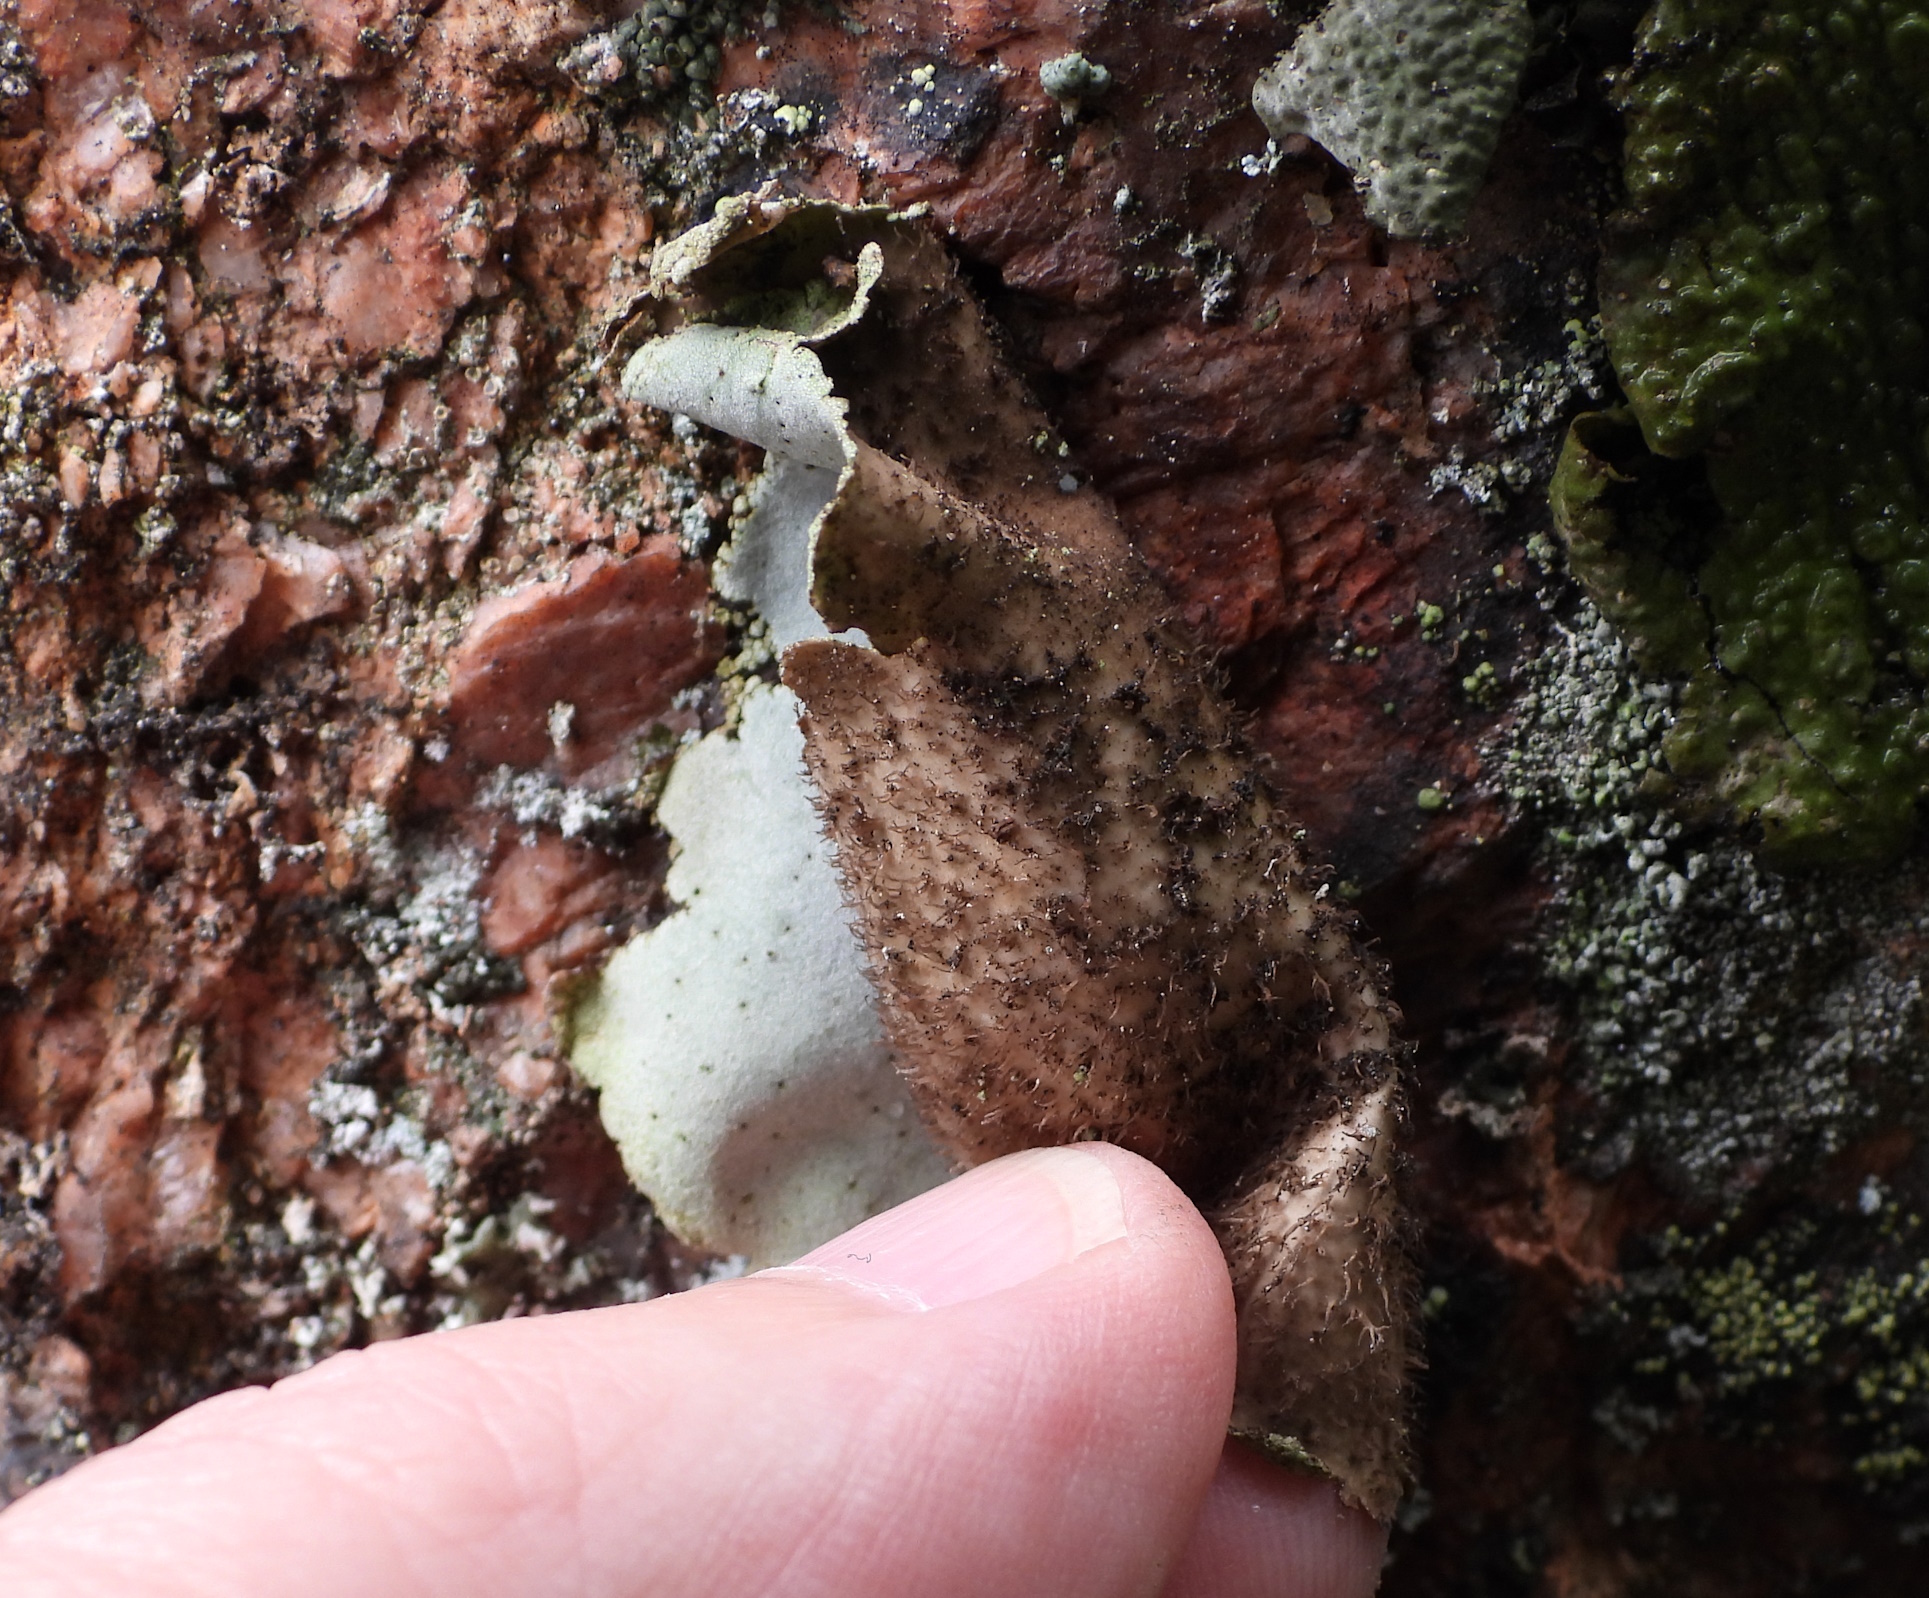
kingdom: Fungi
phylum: Ascomycota
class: Lecanoromycetes
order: Umbilicariales
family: Umbilicariaceae
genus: Umbilicaria
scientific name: Umbilicaria hirsuta
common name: Granulating rocktripe lichen
